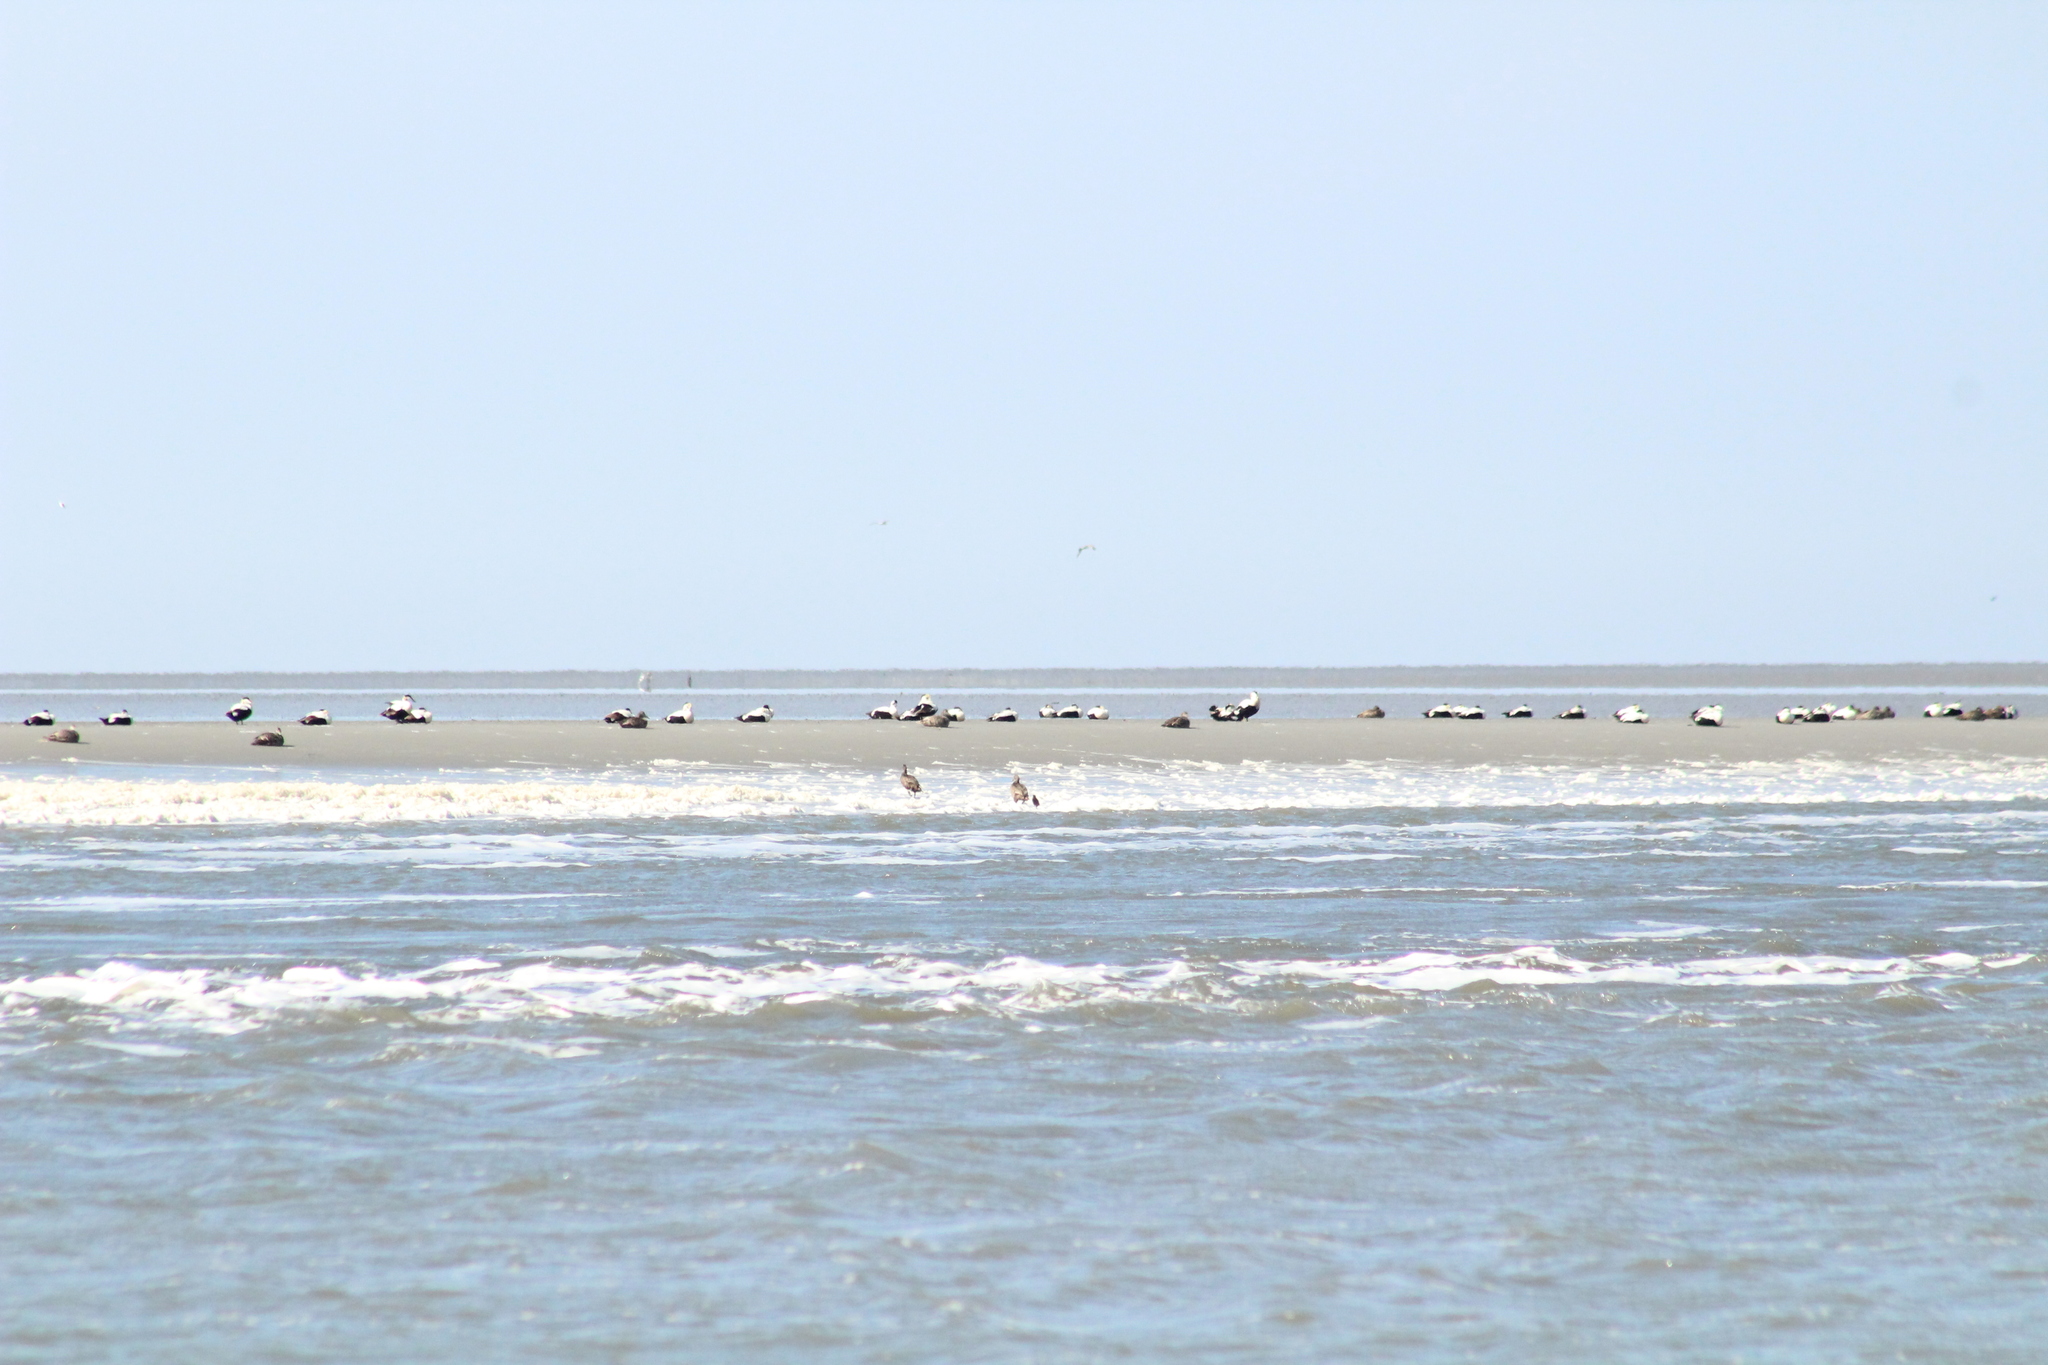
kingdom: Animalia
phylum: Chordata
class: Aves
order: Anseriformes
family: Anatidae
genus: Somateria
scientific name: Somateria mollissima
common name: Common eider
